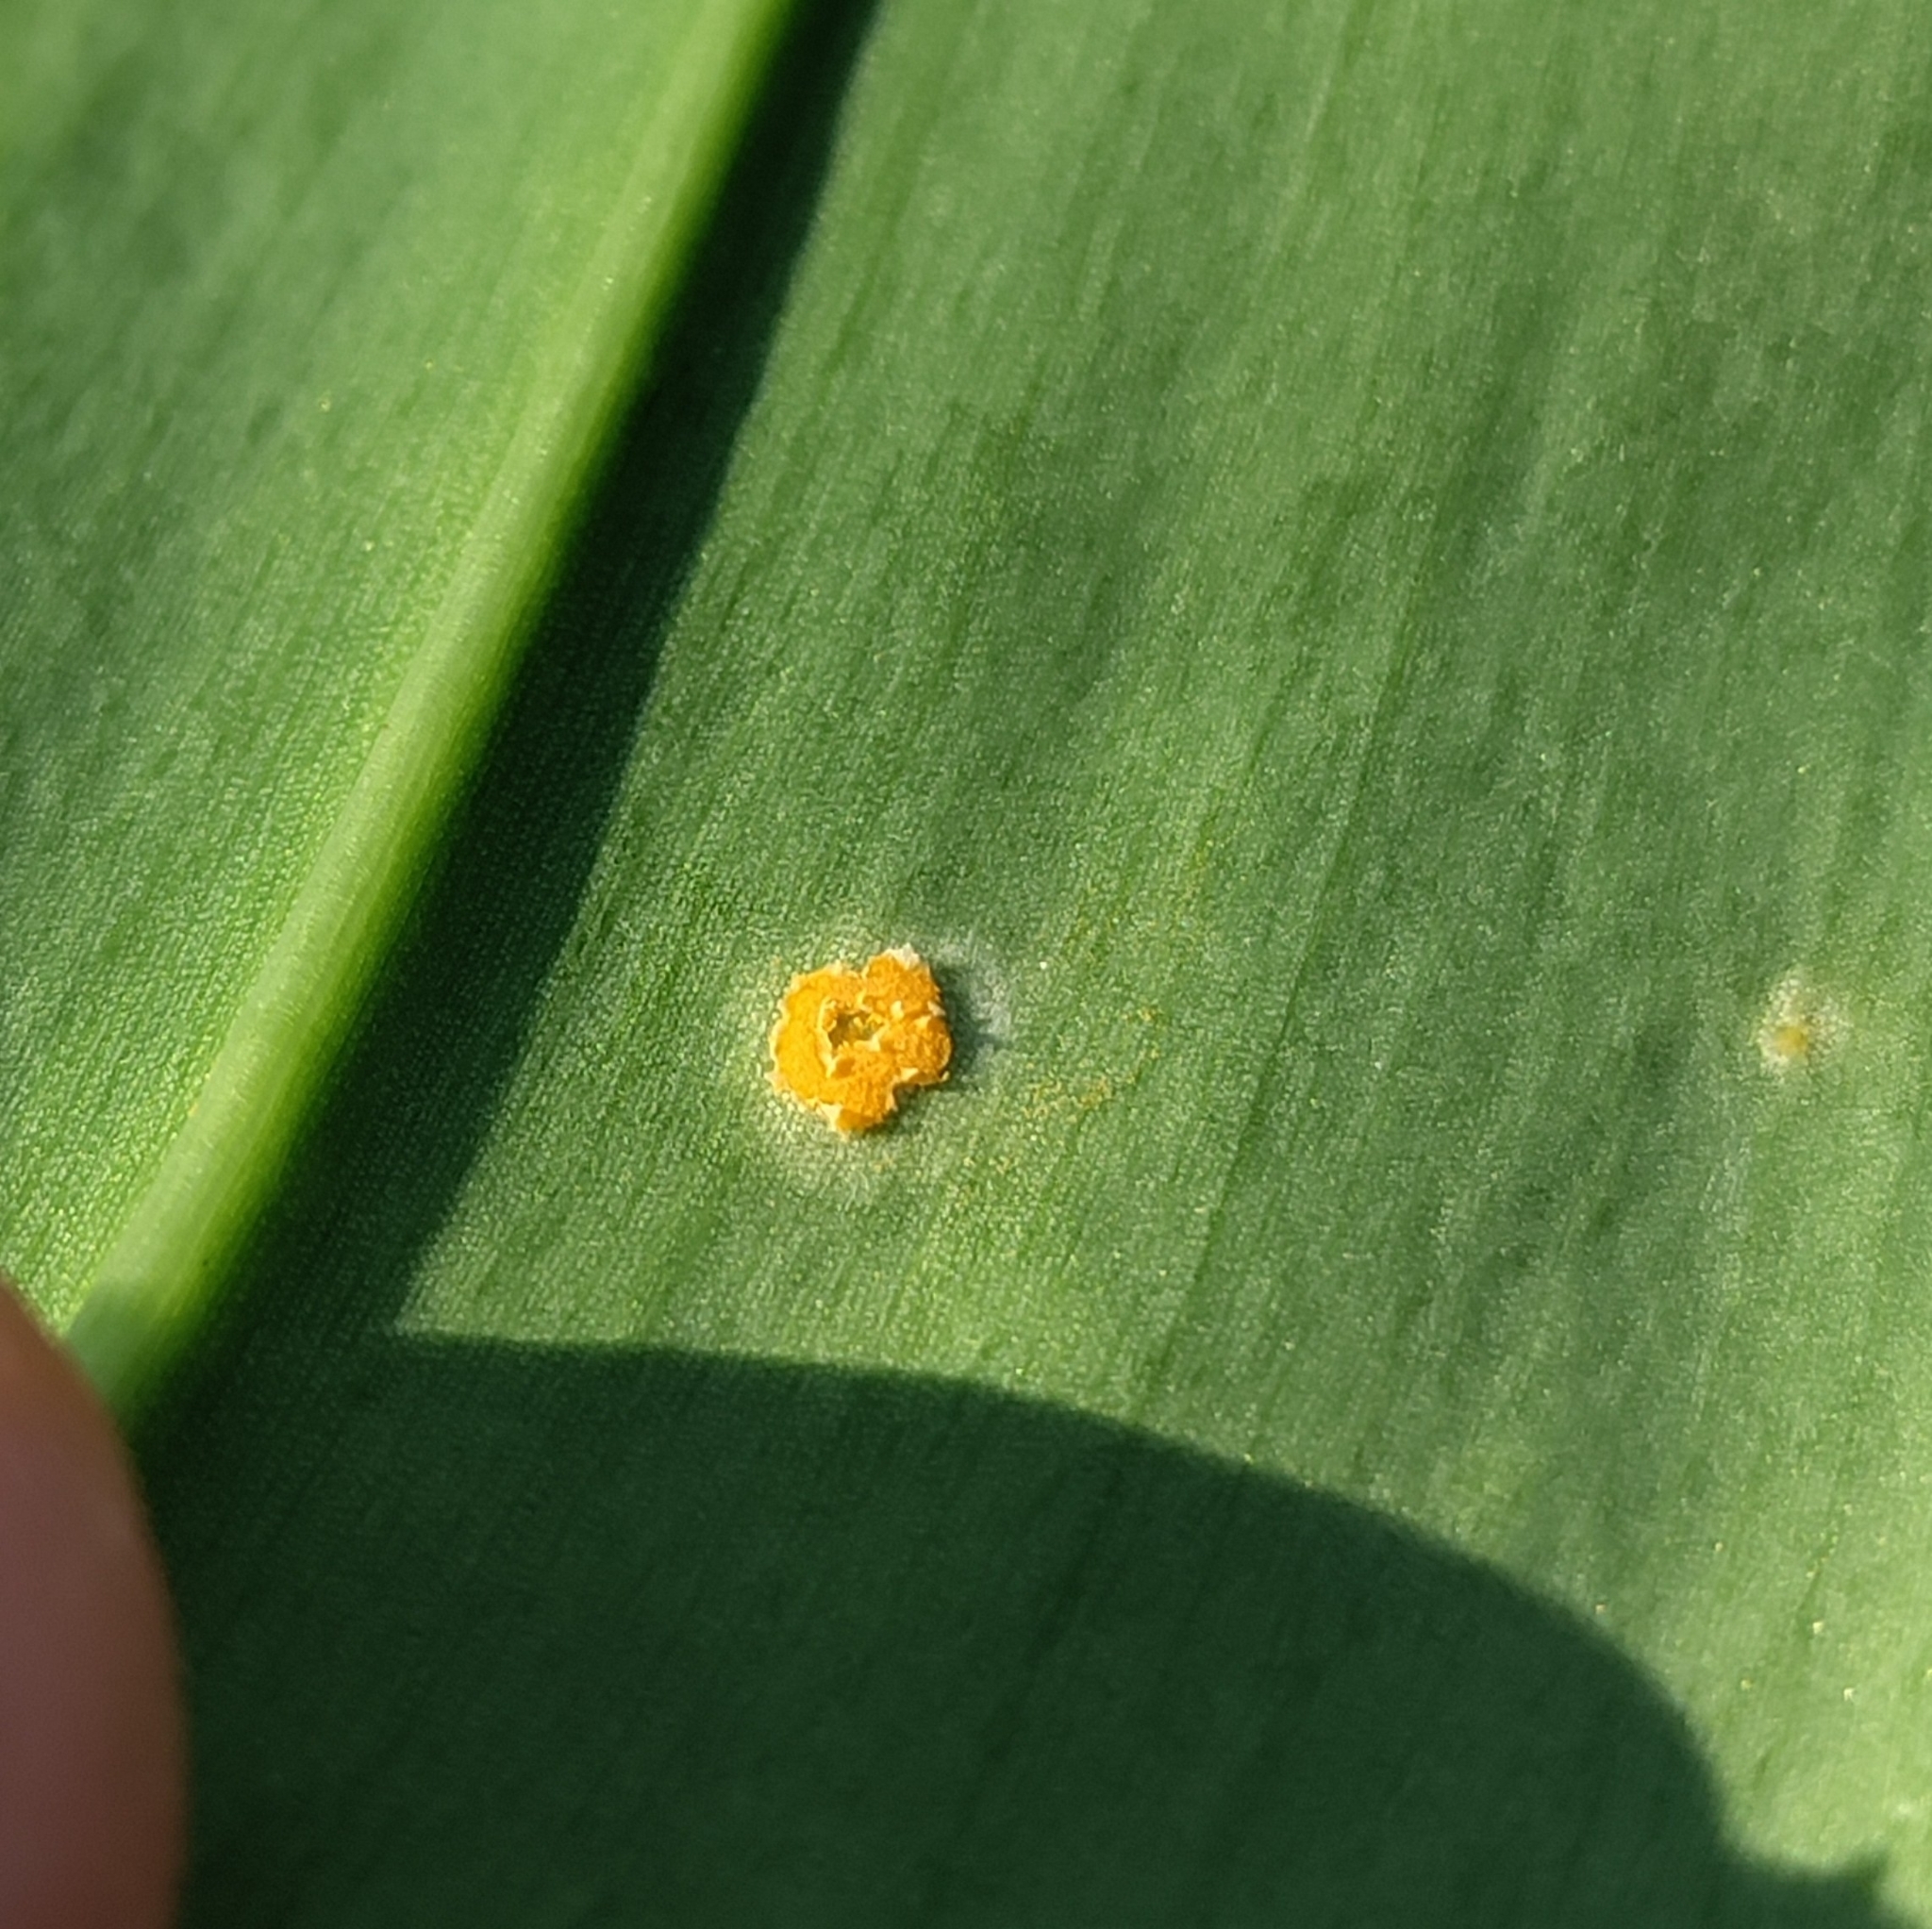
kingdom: Fungi
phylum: Basidiomycota
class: Pucciniomycetes
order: Pucciniales
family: Pucciniaceae
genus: Caeoma
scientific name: Caeoma allii-ursini
